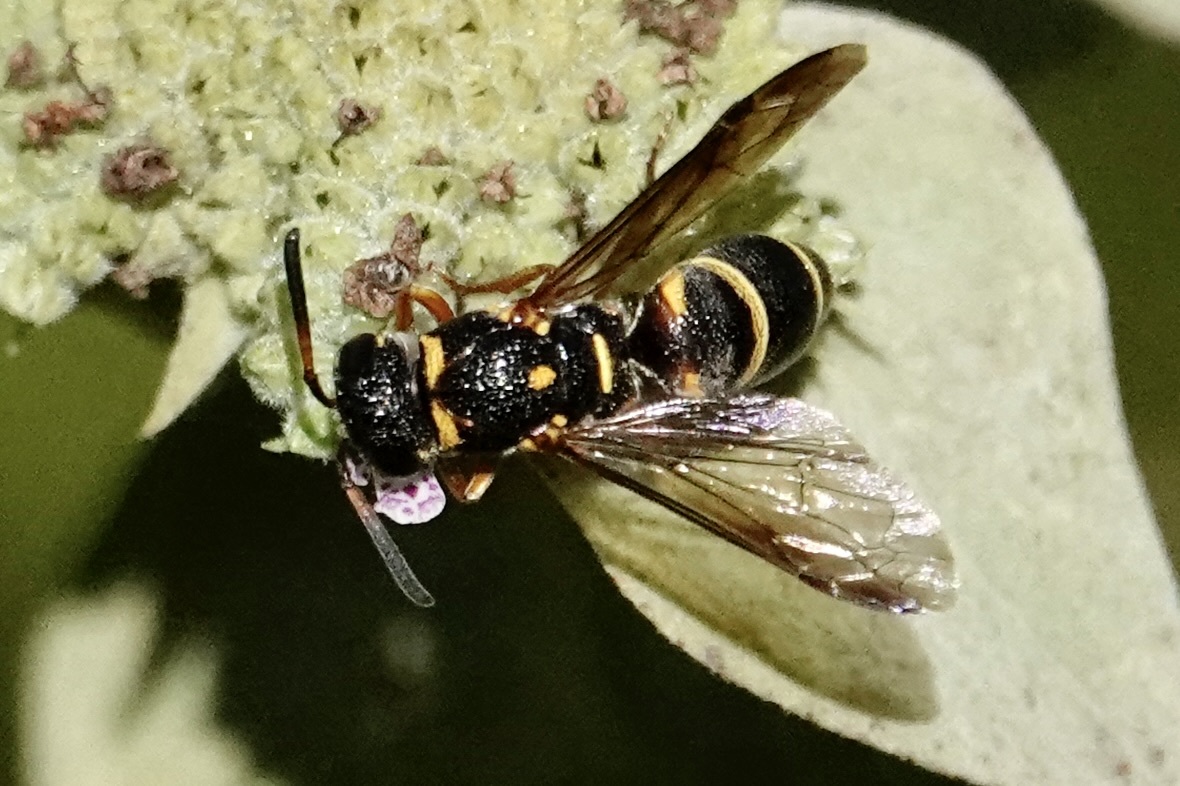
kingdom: Animalia
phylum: Arthropoda
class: Insecta
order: Hymenoptera
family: Eumenidae
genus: Parancistrocerus
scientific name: Parancistrocerus fulvipes
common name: Potter wasp
